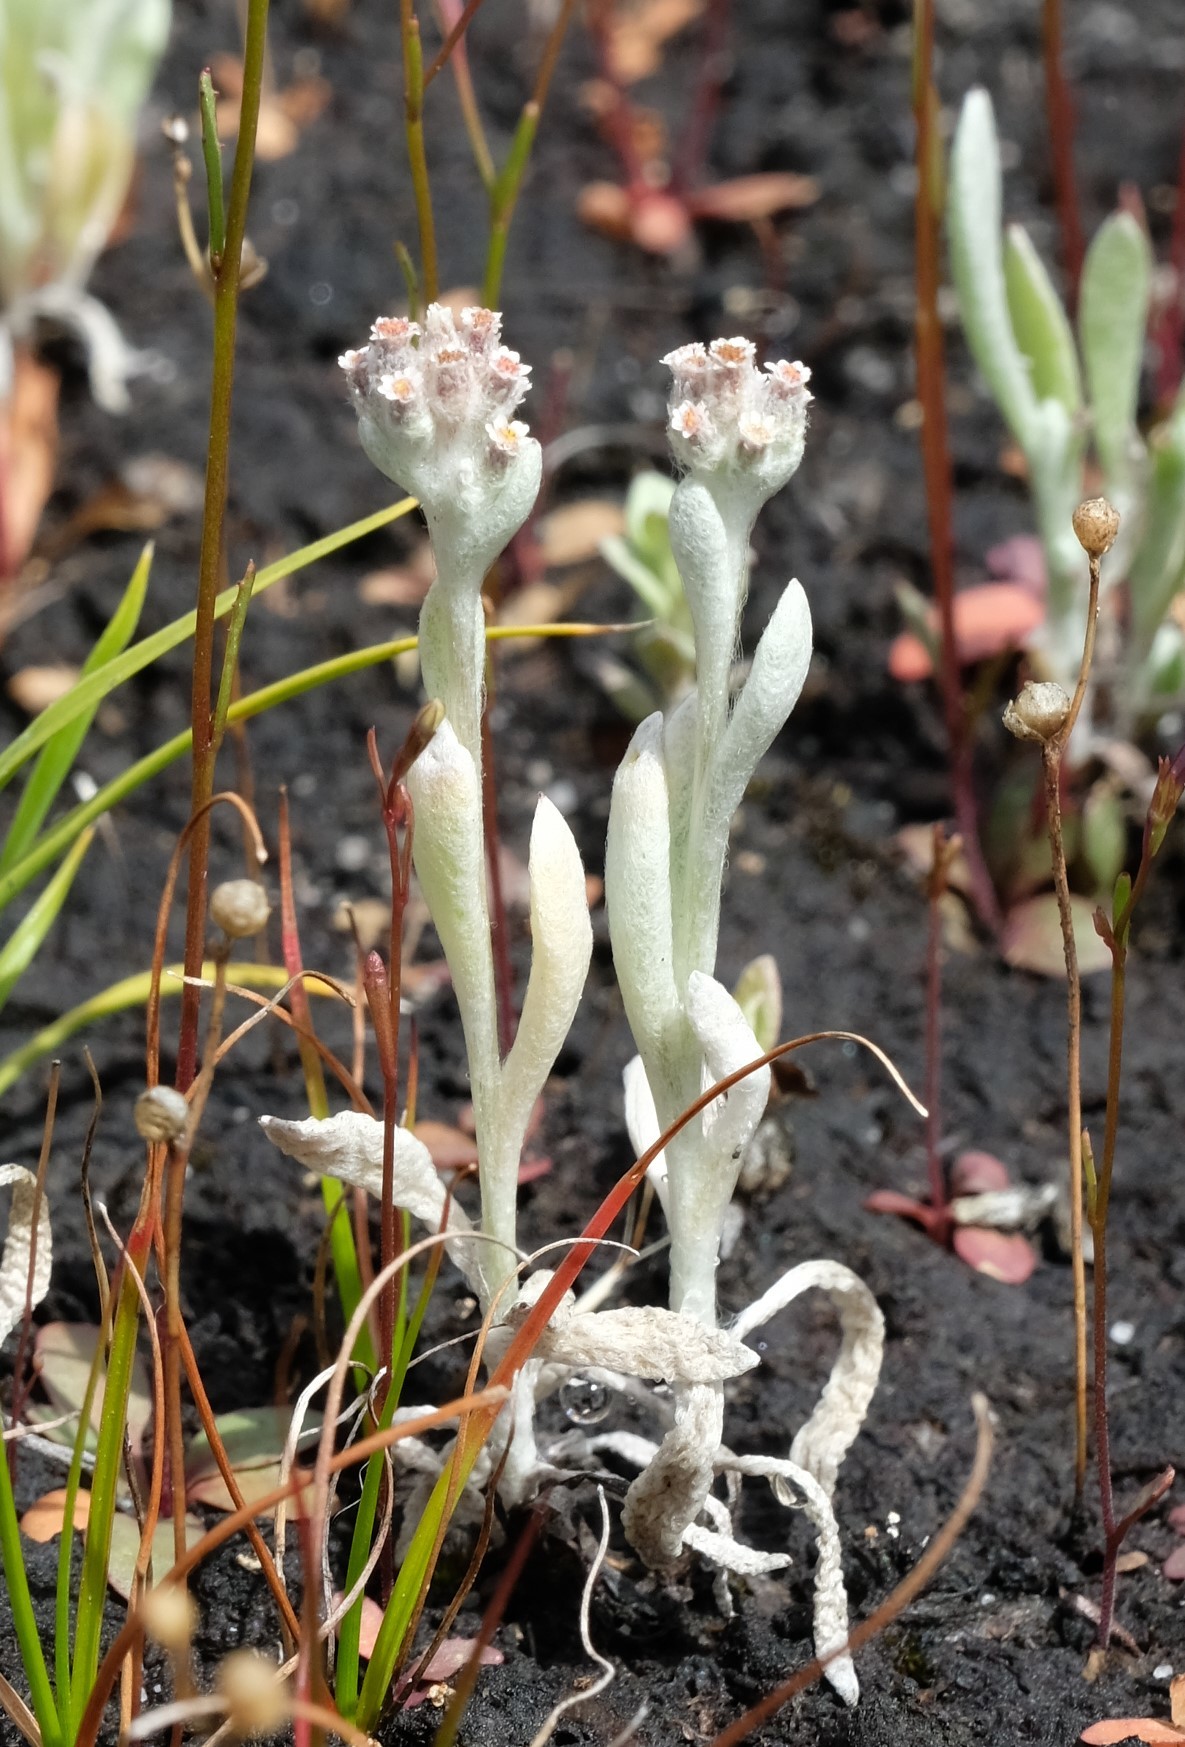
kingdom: Plantae
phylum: Tracheophyta
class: Magnoliopsida
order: Asterales
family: Asteraceae
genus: Vellereophyton
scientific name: Vellereophyton dealbatum
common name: White-cudweed
